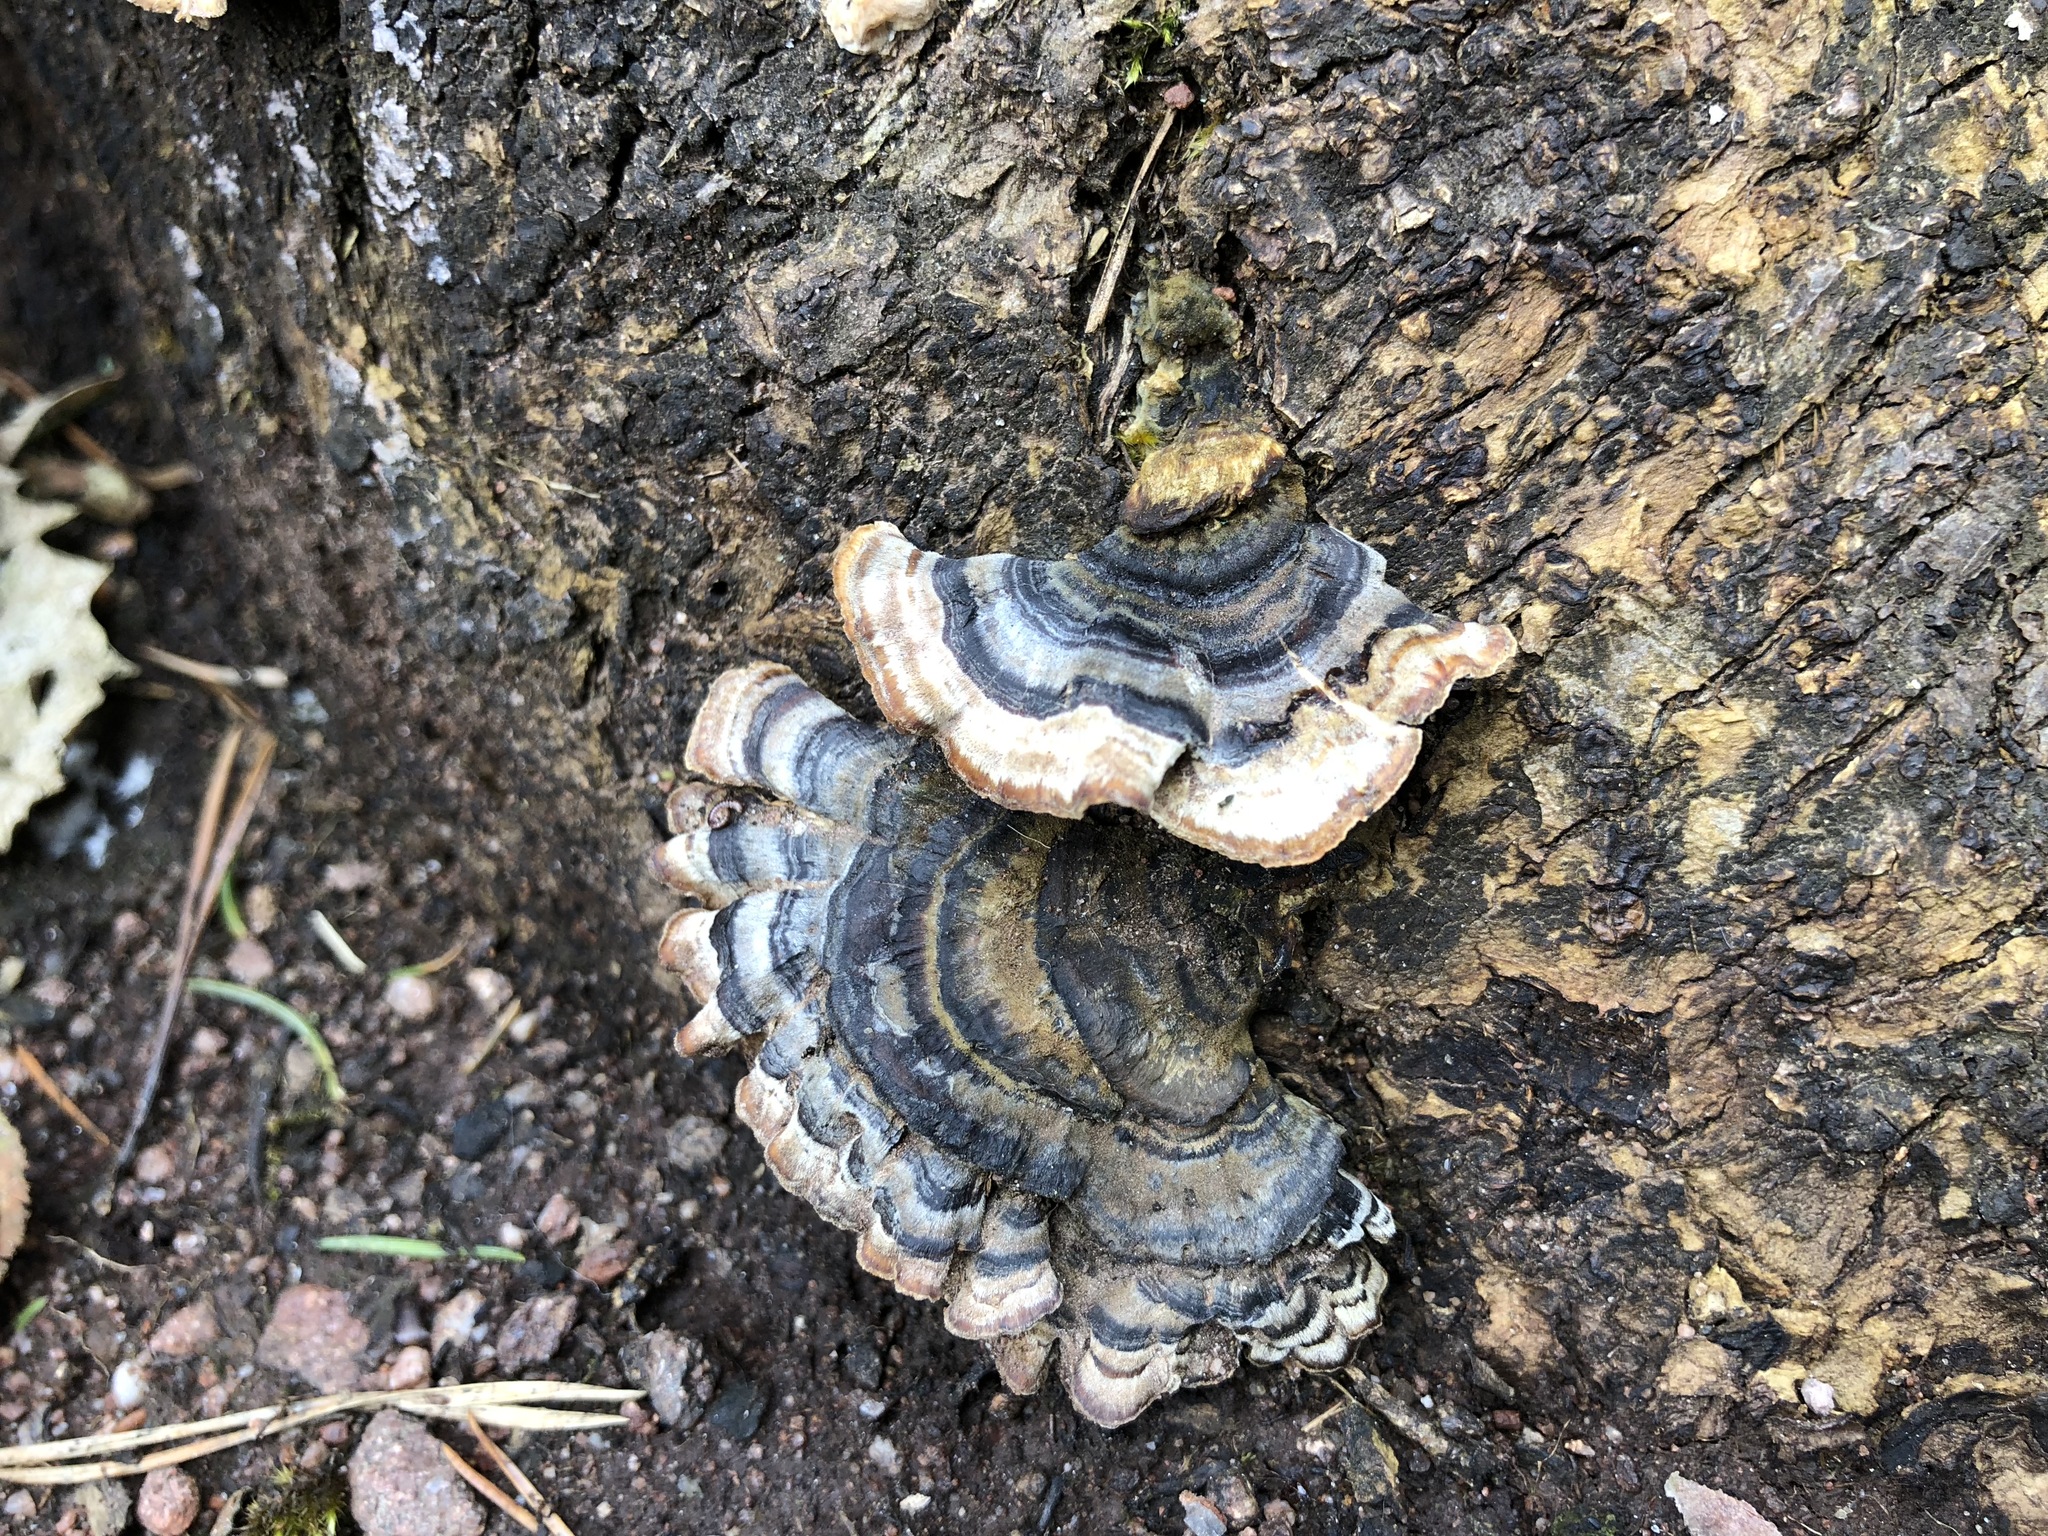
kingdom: Fungi
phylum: Basidiomycota
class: Agaricomycetes
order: Polyporales
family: Polyporaceae
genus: Trametes
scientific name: Trametes versicolor
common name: Turkeytail
